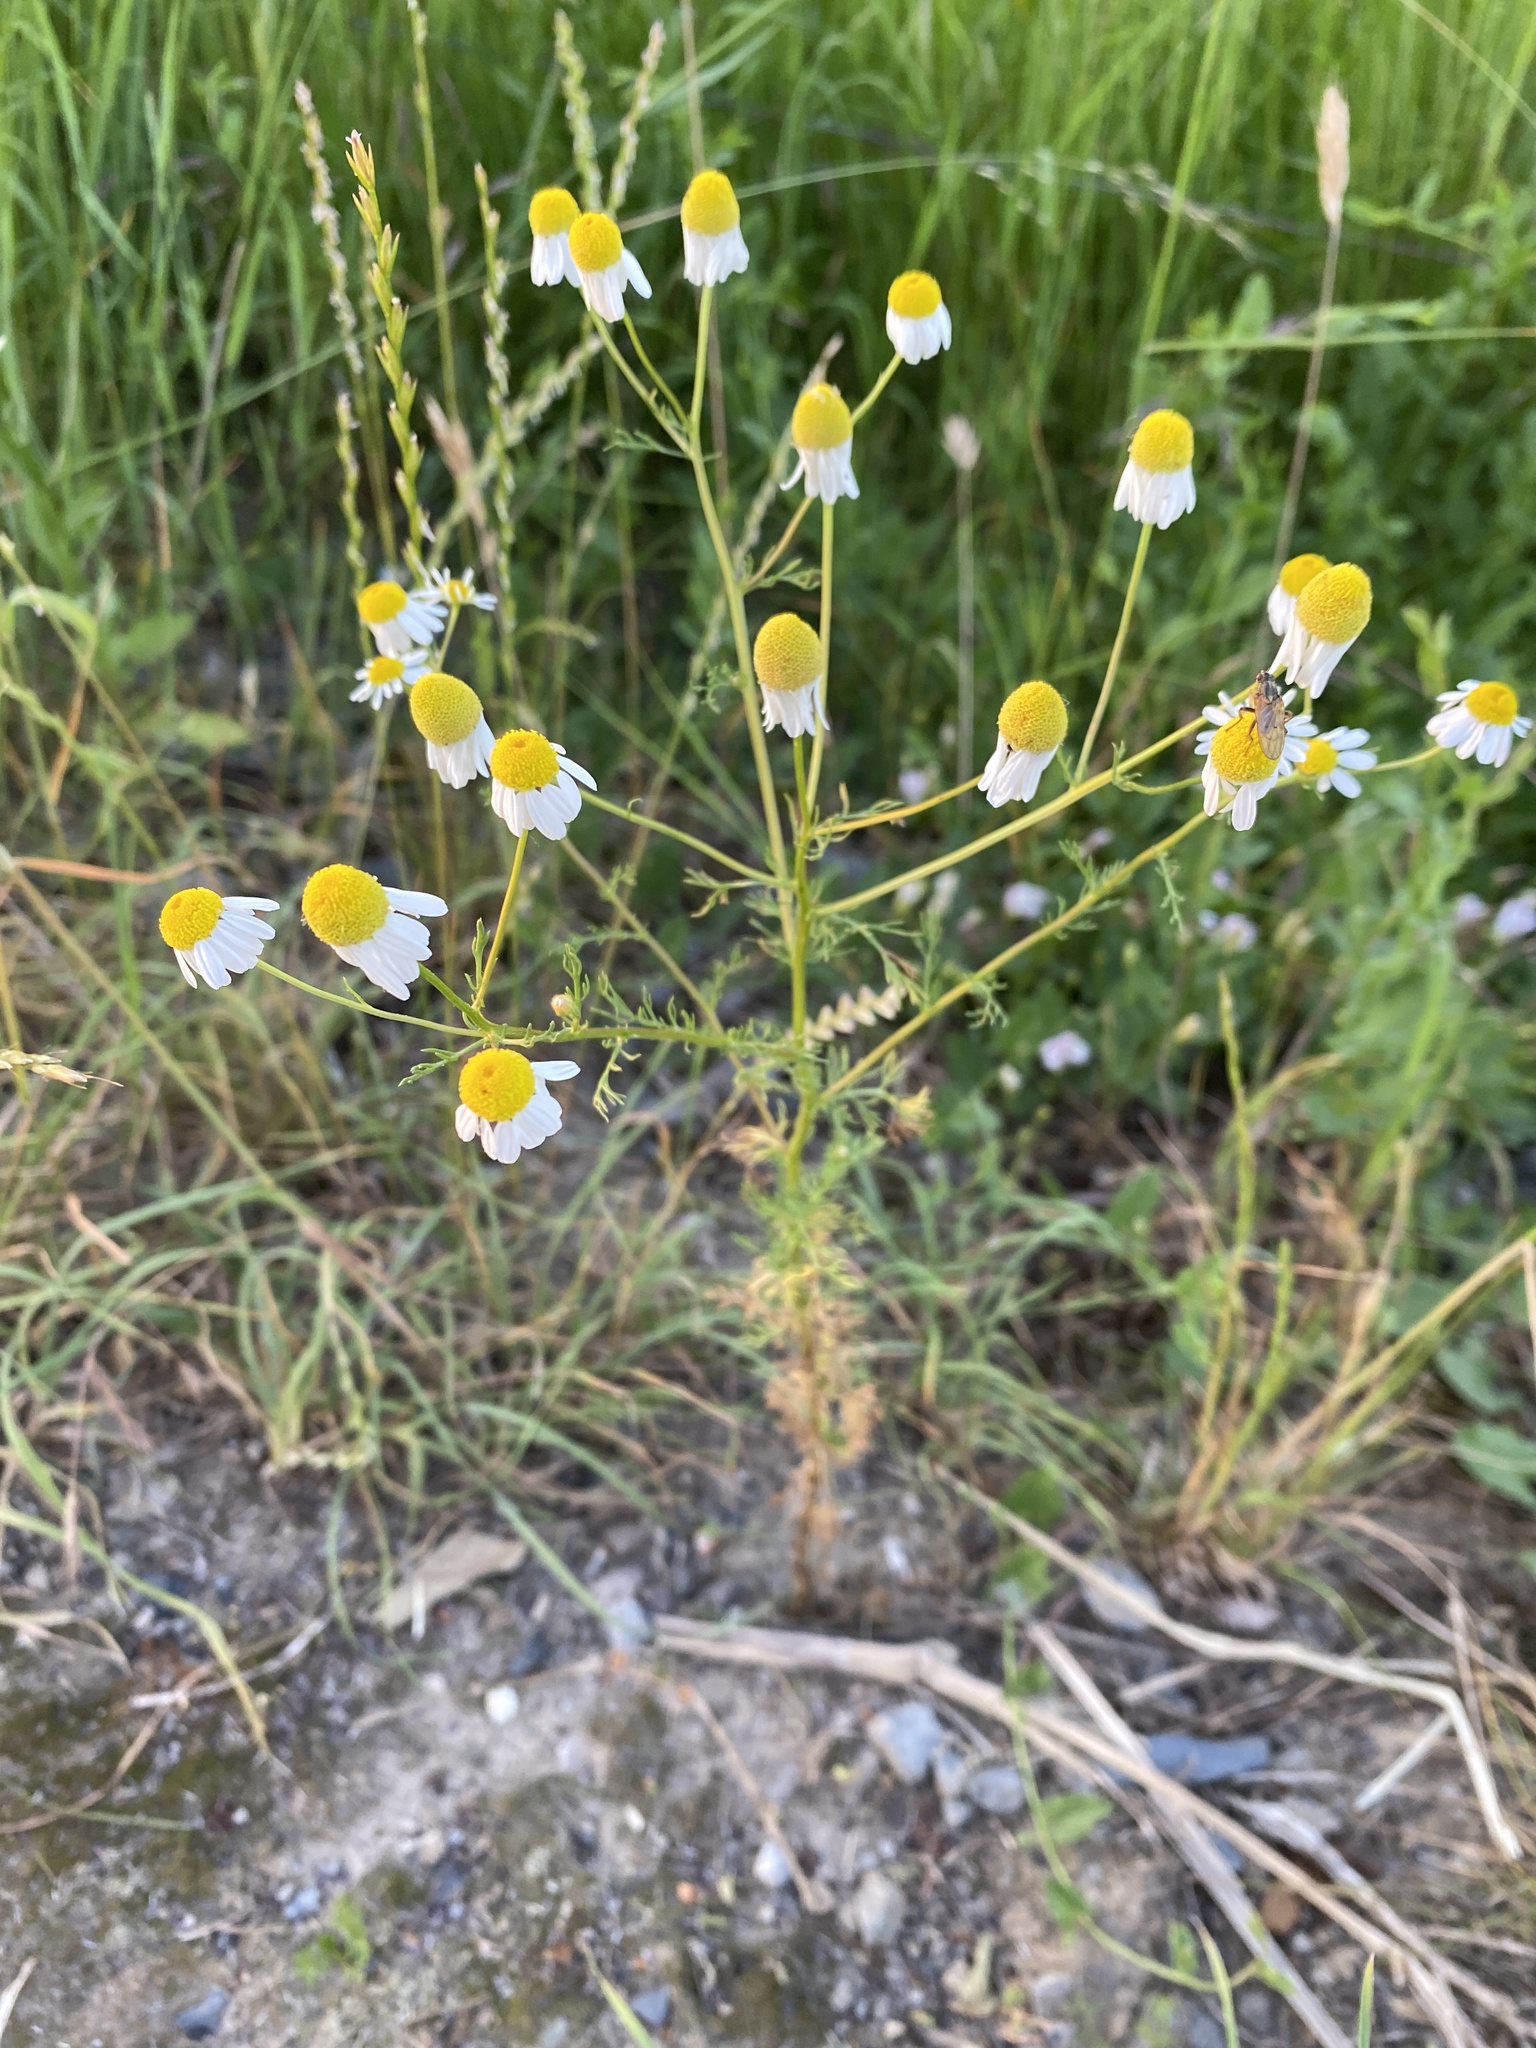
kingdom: Plantae
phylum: Tracheophyta
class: Magnoliopsida
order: Asterales
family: Asteraceae
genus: Matricaria
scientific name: Matricaria chamomilla
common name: Scented mayweed
